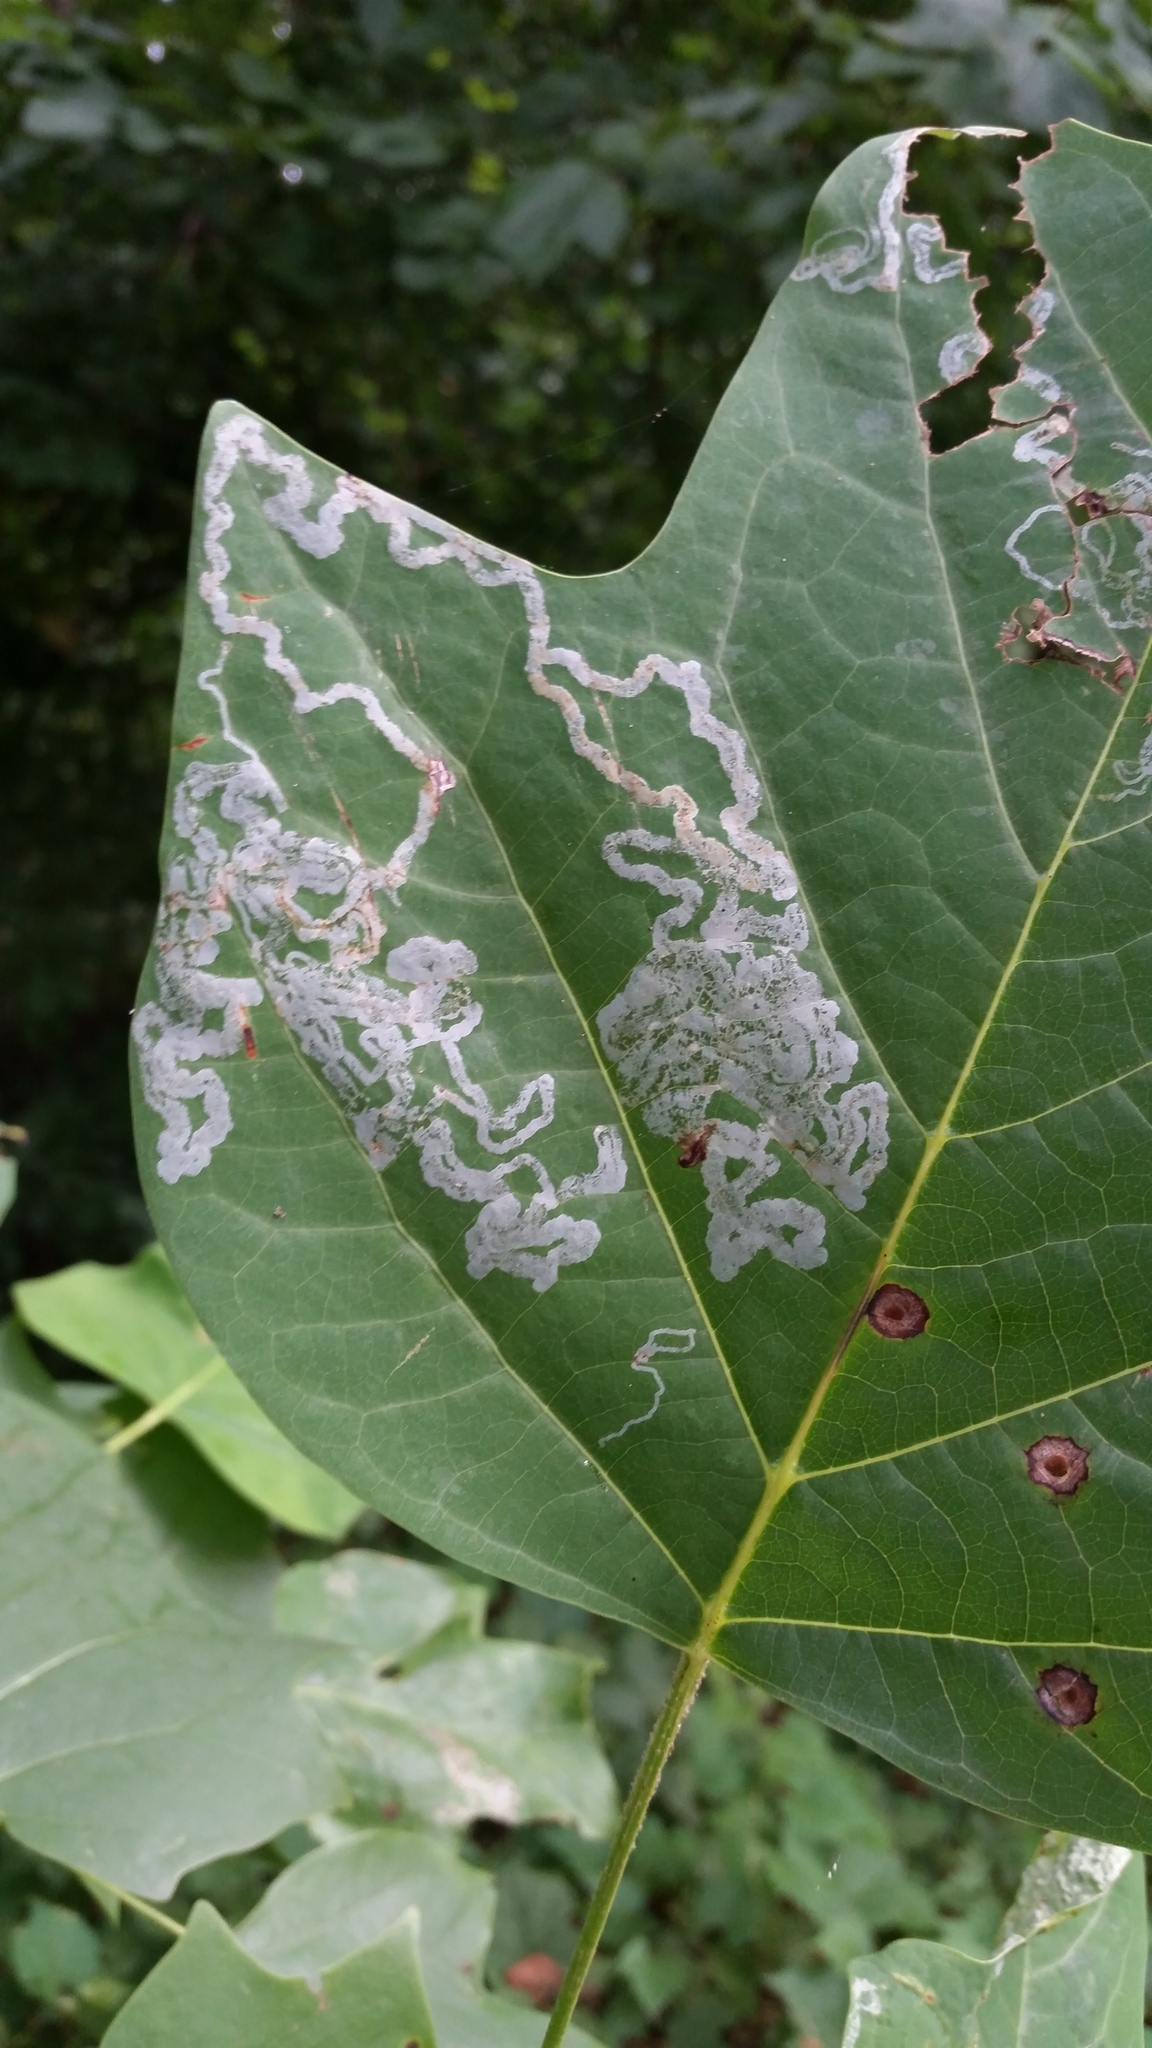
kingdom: Animalia
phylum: Arthropoda
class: Insecta
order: Lepidoptera
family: Gracillariidae
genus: Phyllocnistis
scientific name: Phyllocnistis liriodendronella
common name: Tulip tree leaf miner
